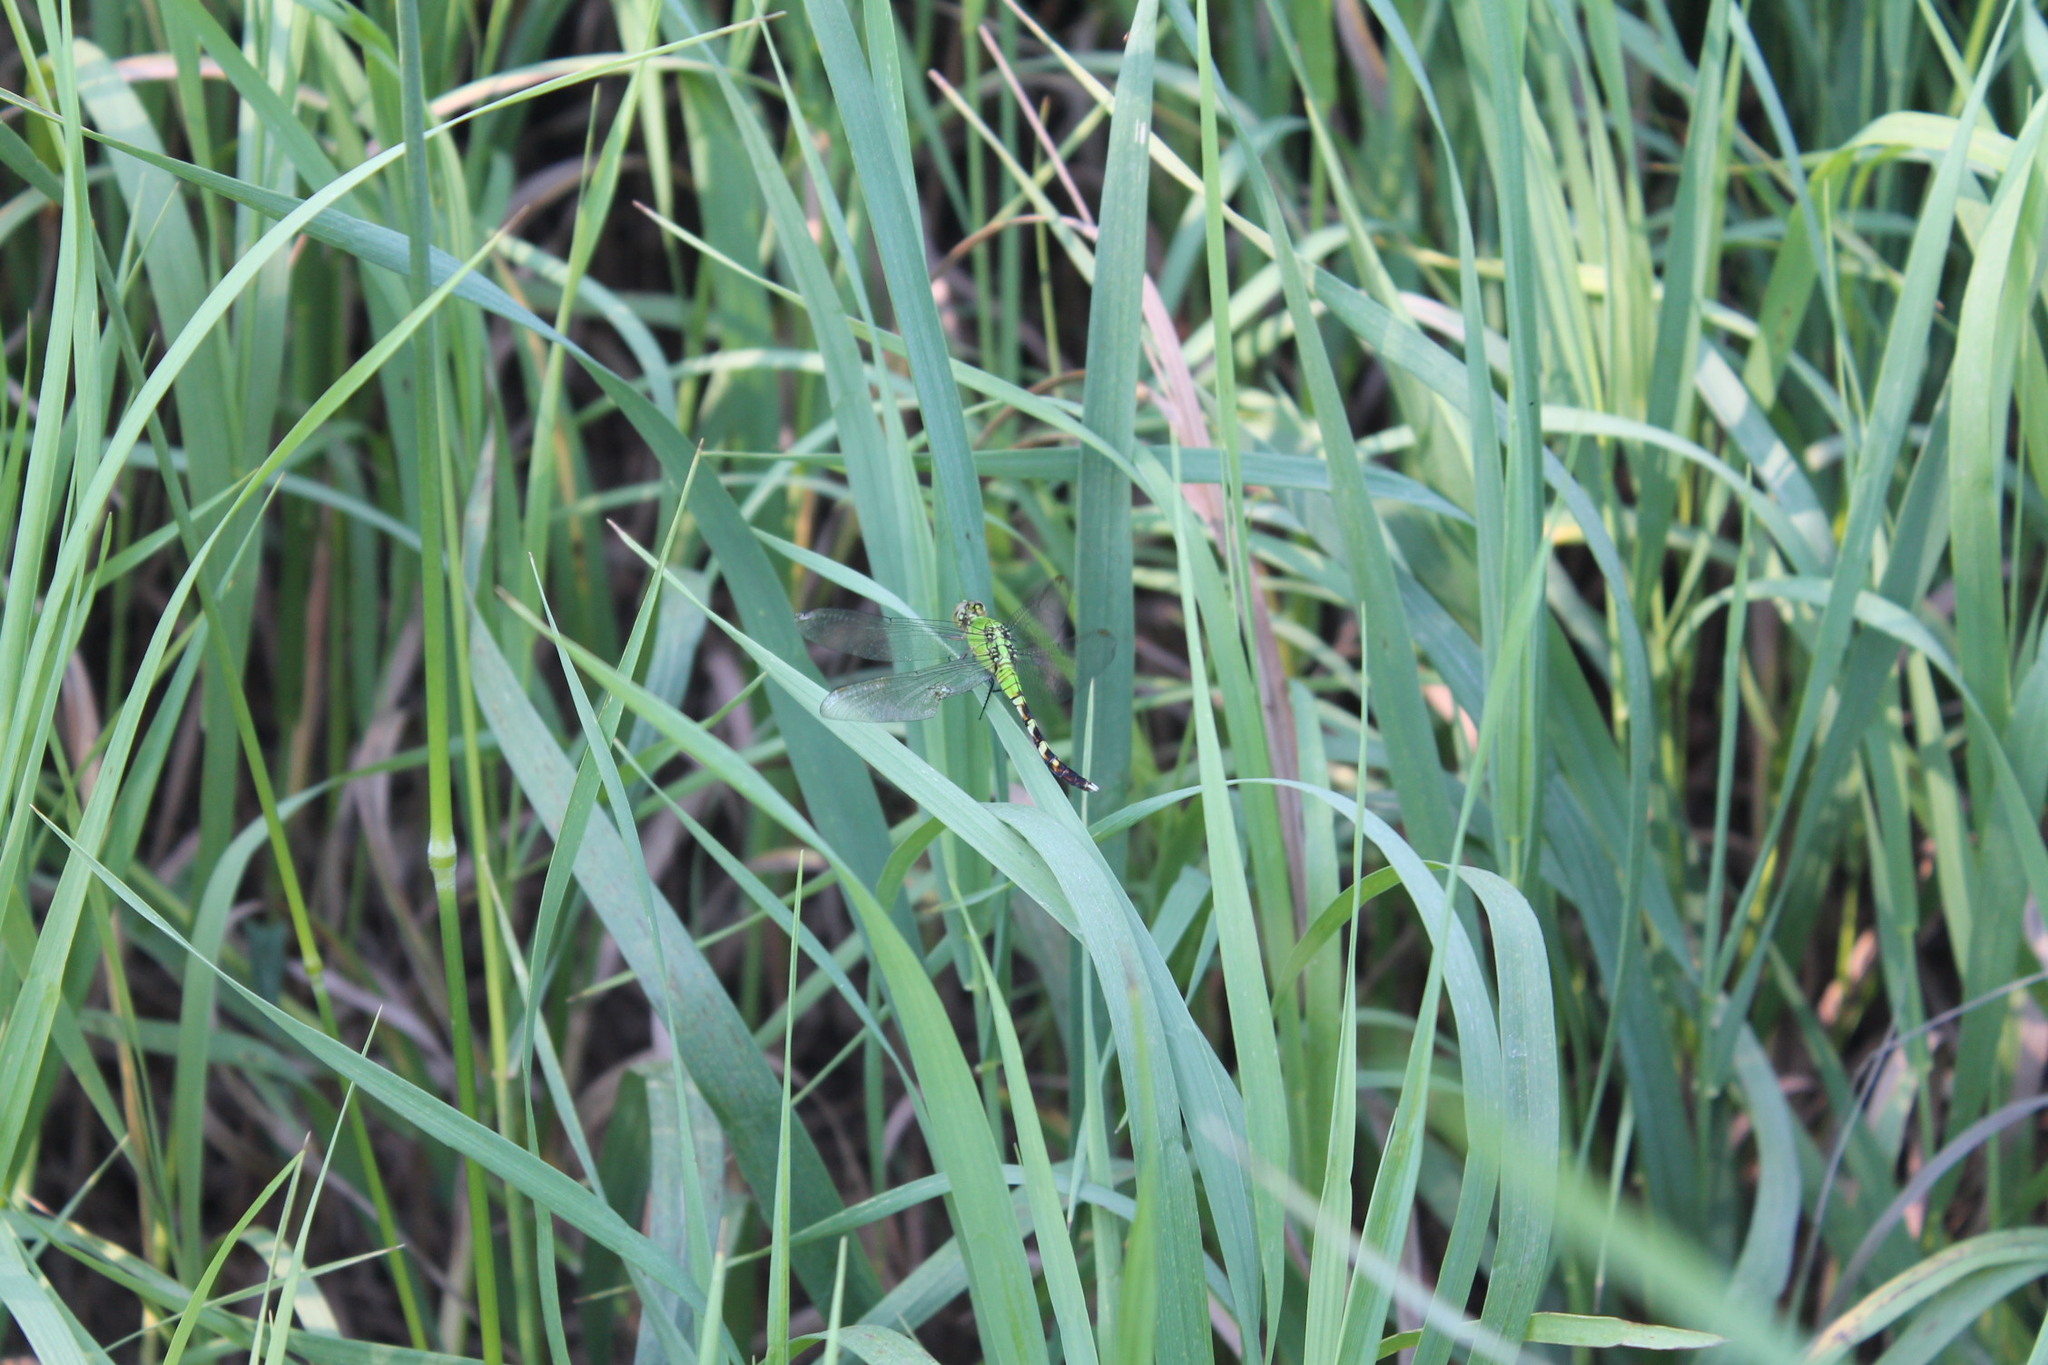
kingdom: Animalia
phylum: Arthropoda
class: Insecta
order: Odonata
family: Libellulidae
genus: Erythemis
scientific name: Erythemis simplicicollis
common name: Eastern pondhawk
